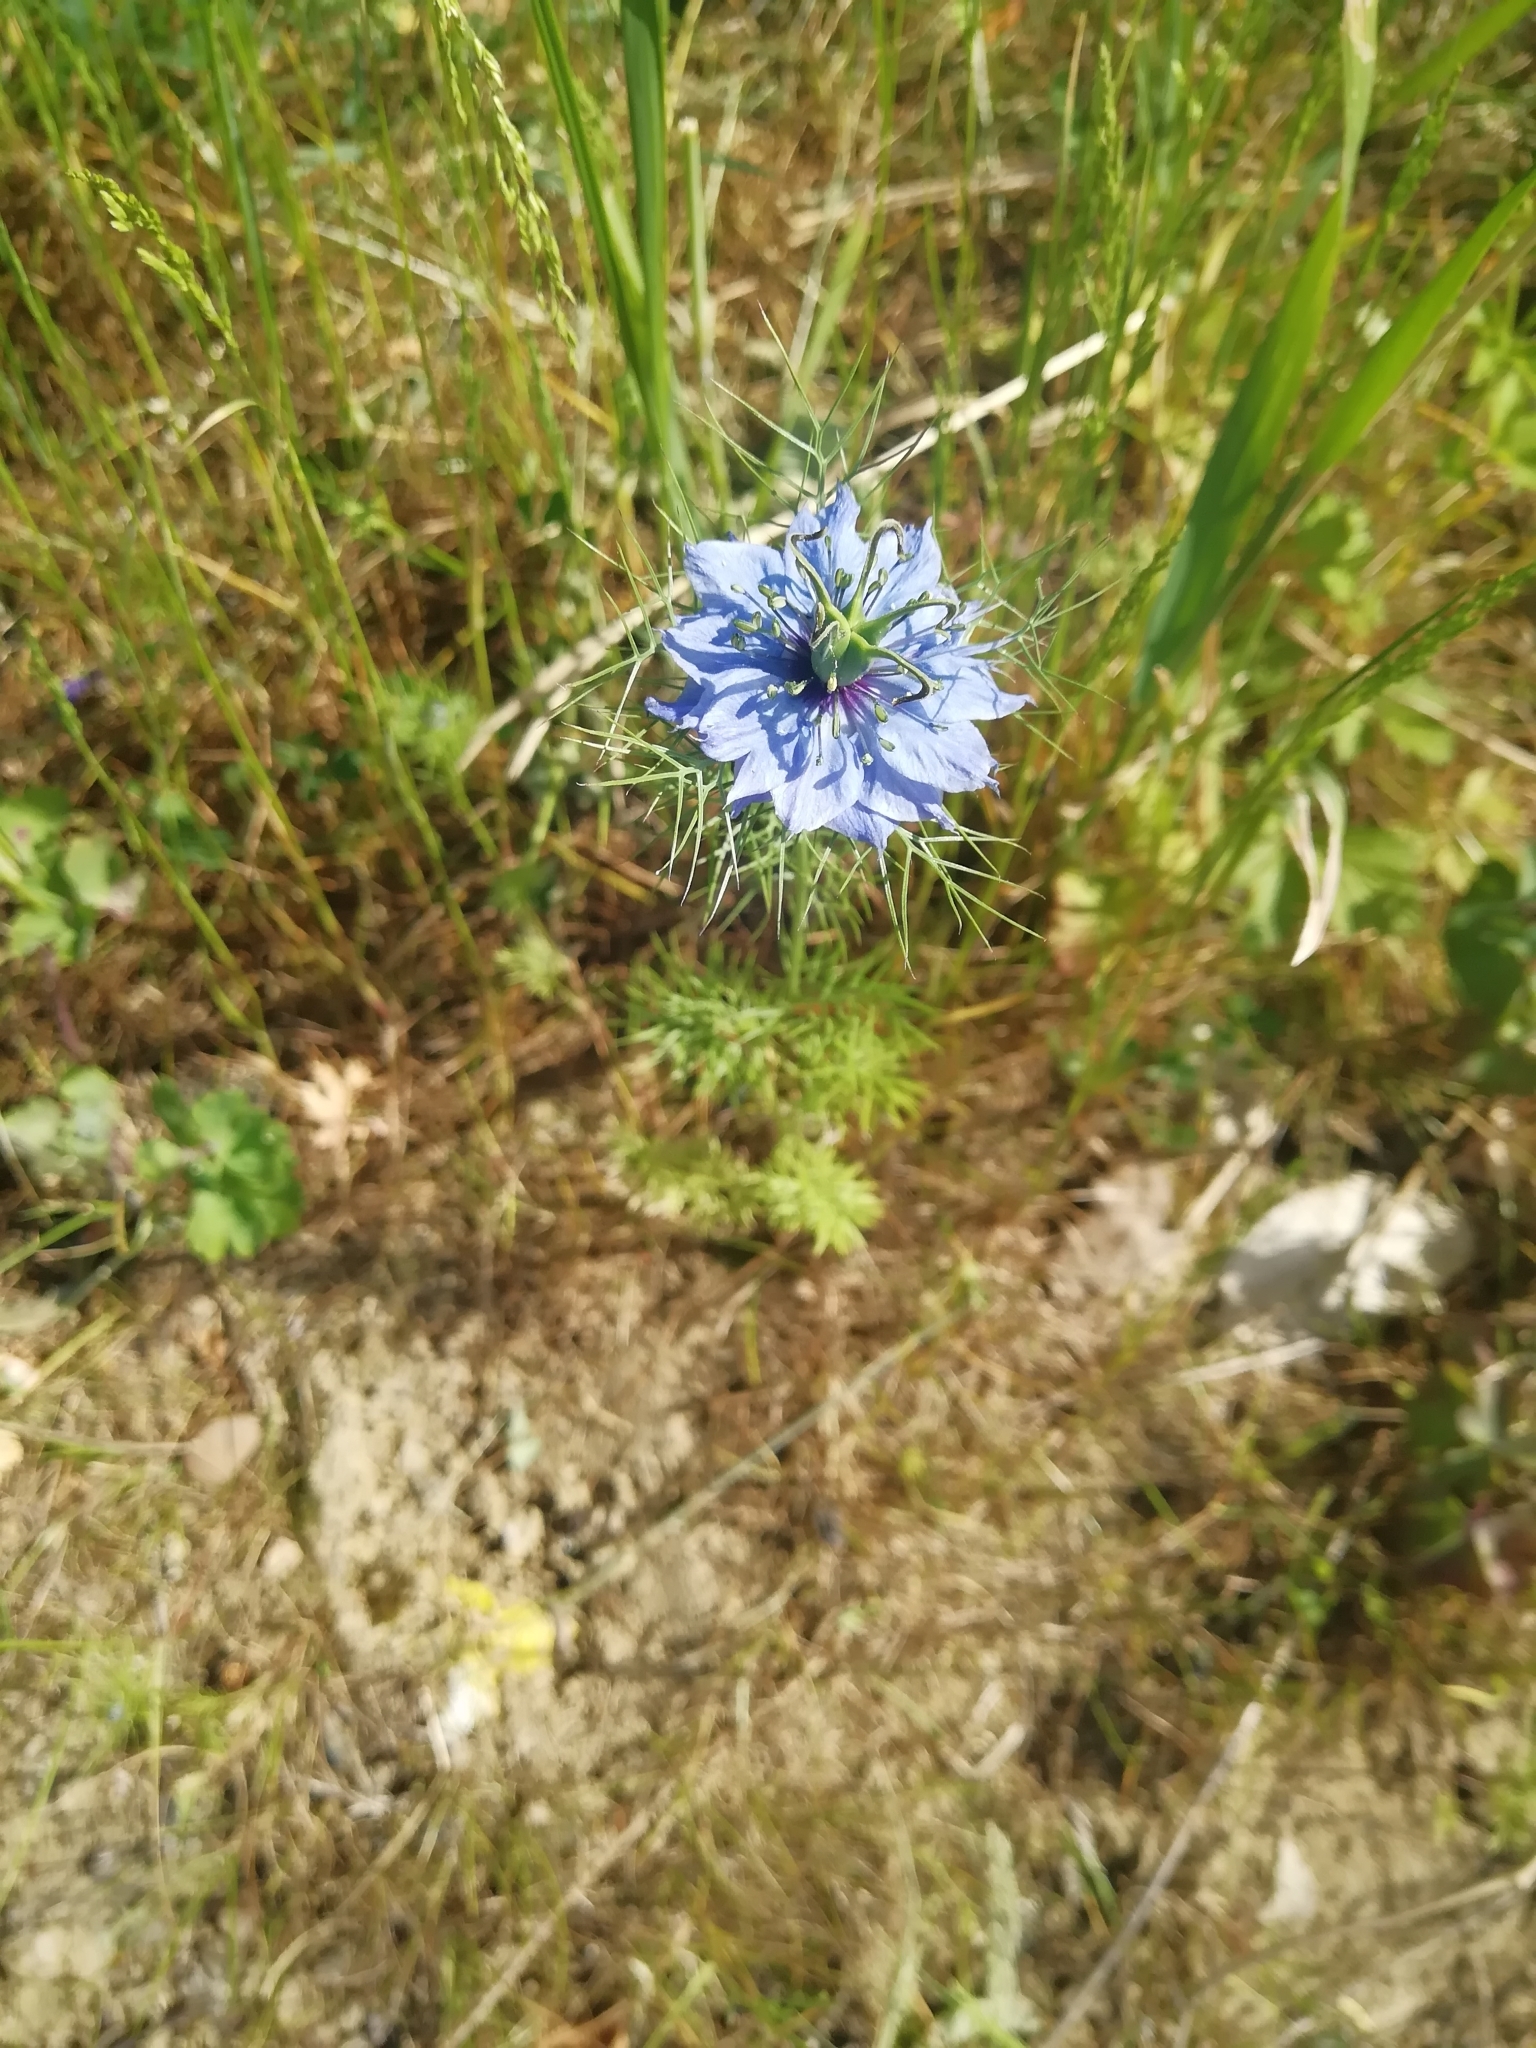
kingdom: Plantae
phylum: Tracheophyta
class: Magnoliopsida
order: Ranunculales
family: Ranunculaceae
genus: Nigella
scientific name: Nigella damascena
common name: Love-in-a-mist
